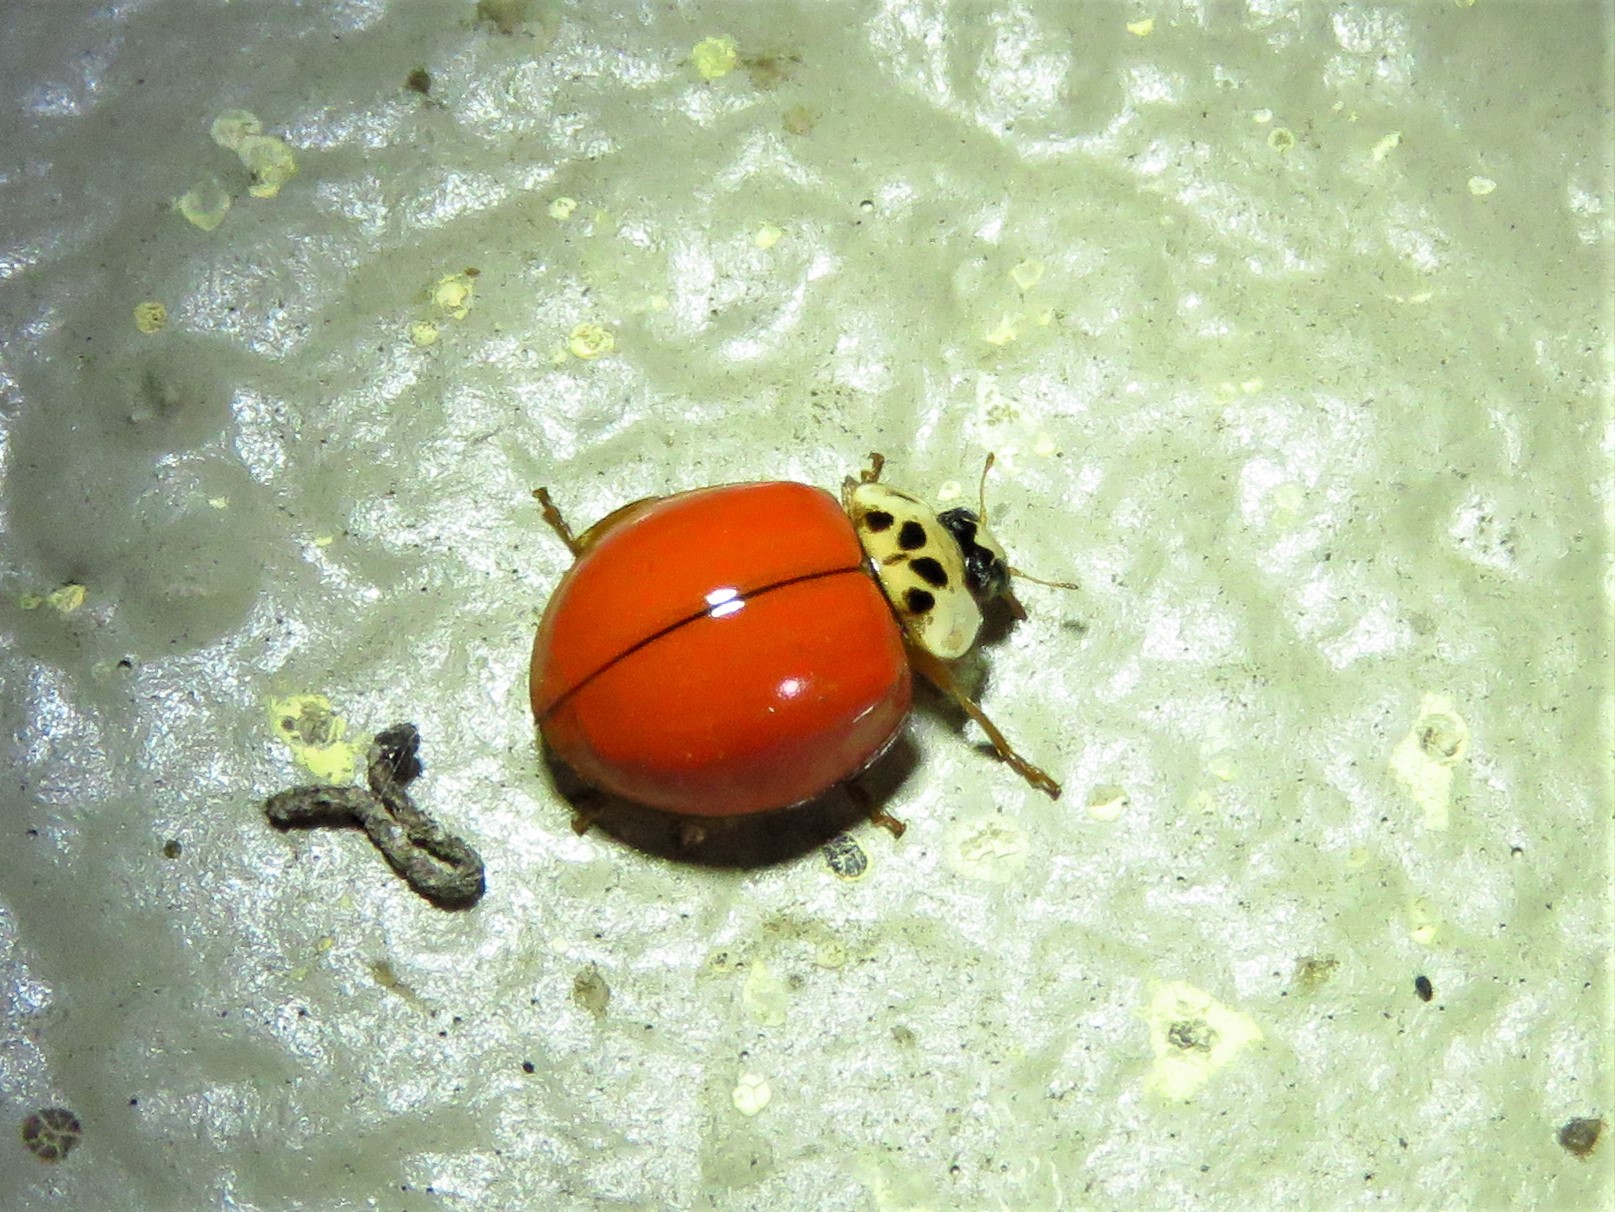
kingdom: Animalia
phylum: Arthropoda
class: Insecta
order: Coleoptera
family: Coccinellidae
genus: Harmonia
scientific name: Harmonia axyridis
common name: Harlequin ladybird
